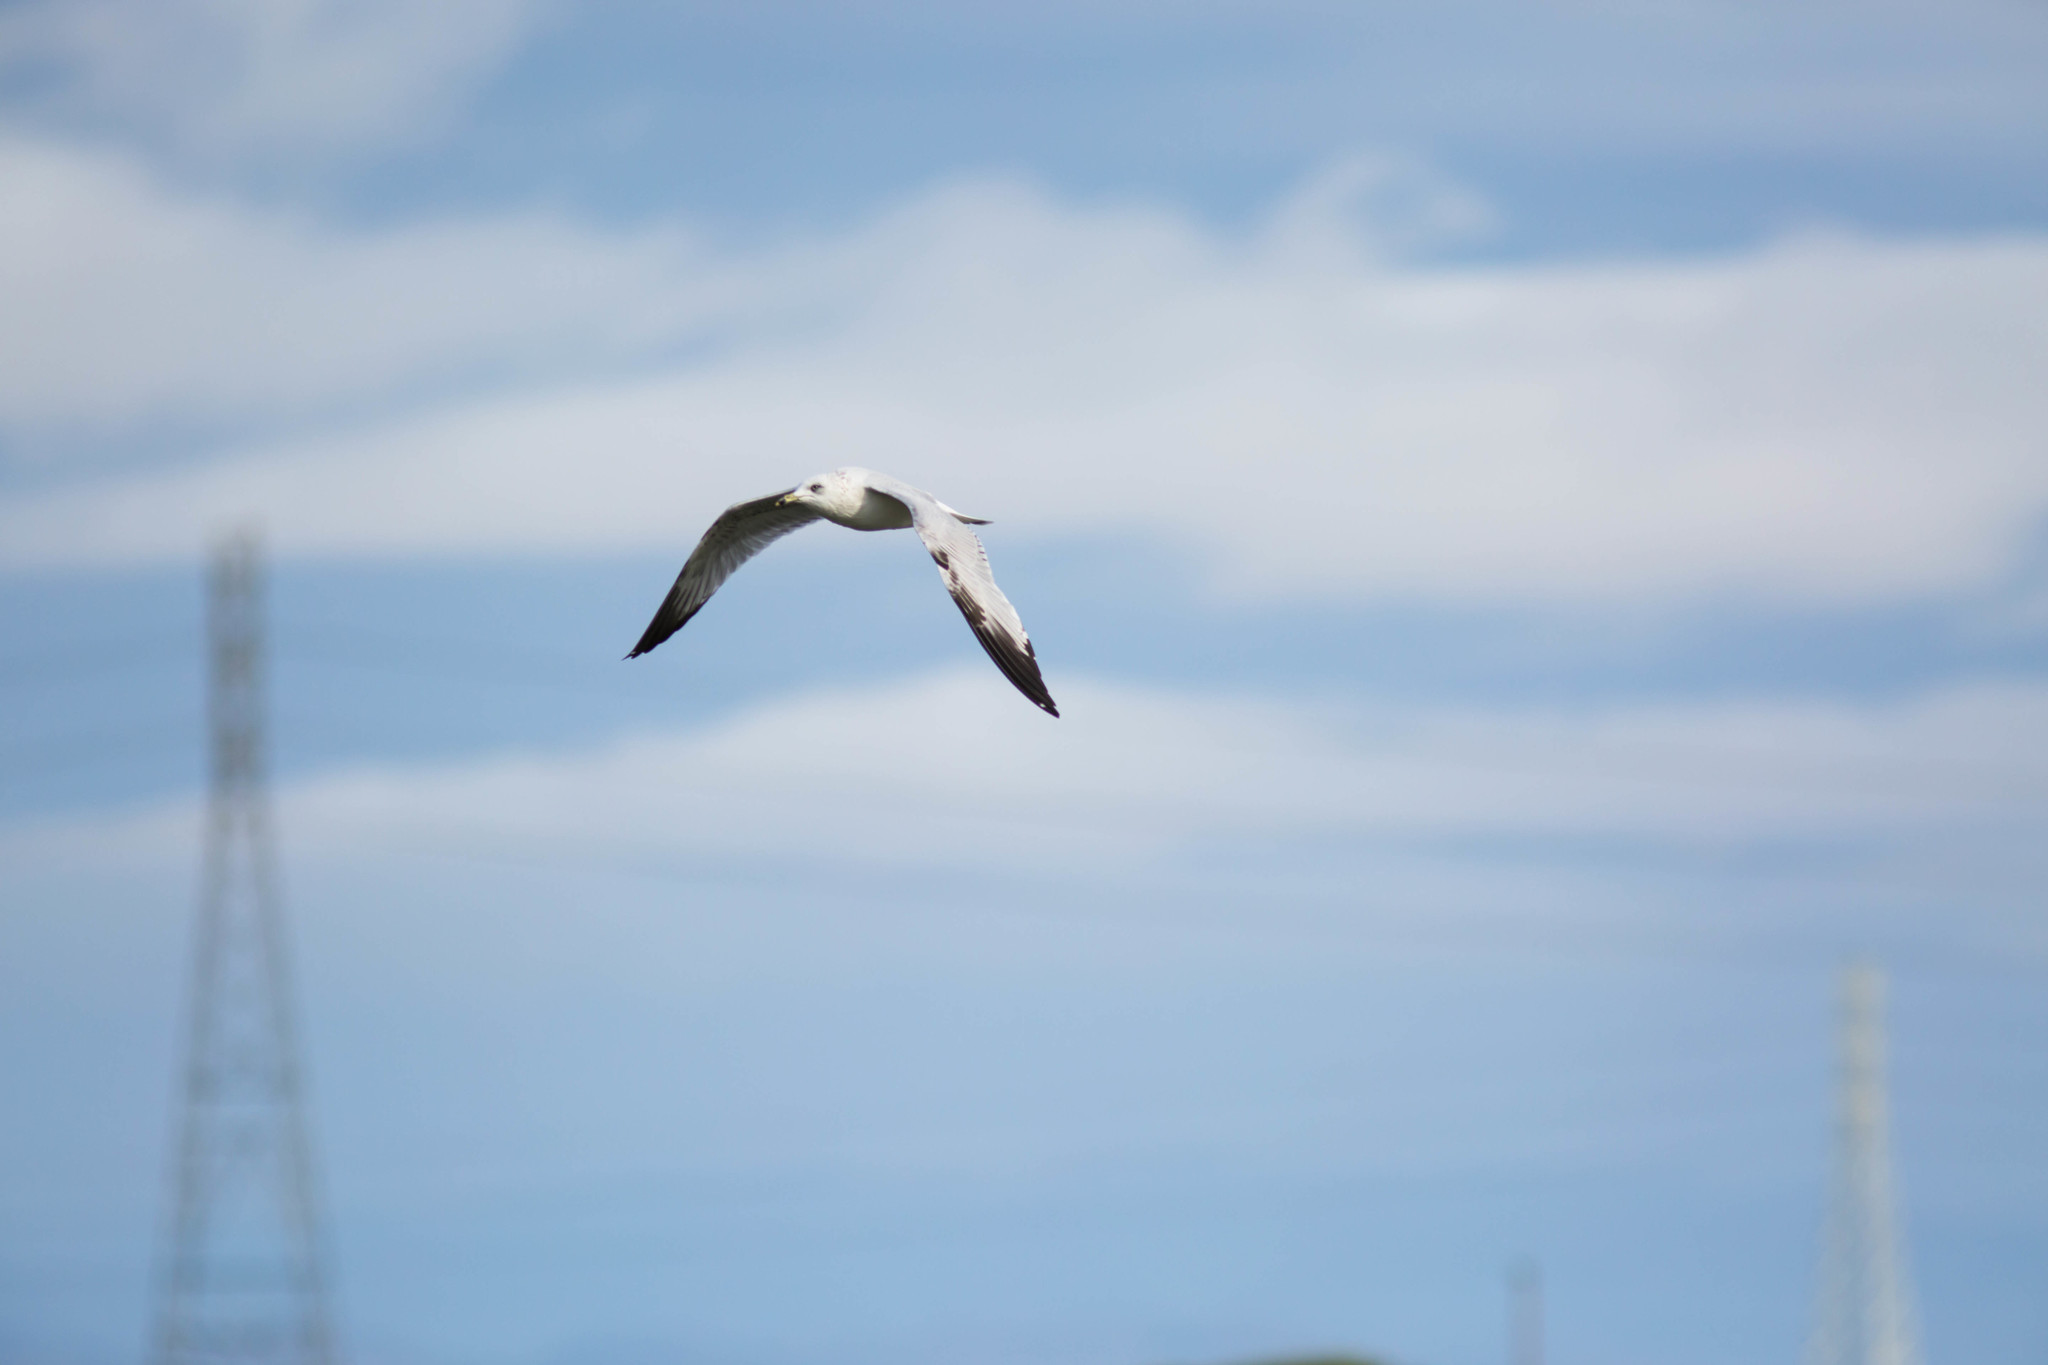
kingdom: Animalia
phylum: Chordata
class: Aves
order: Charadriiformes
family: Laridae
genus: Larus
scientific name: Larus delawarensis
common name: Ring-billed gull
